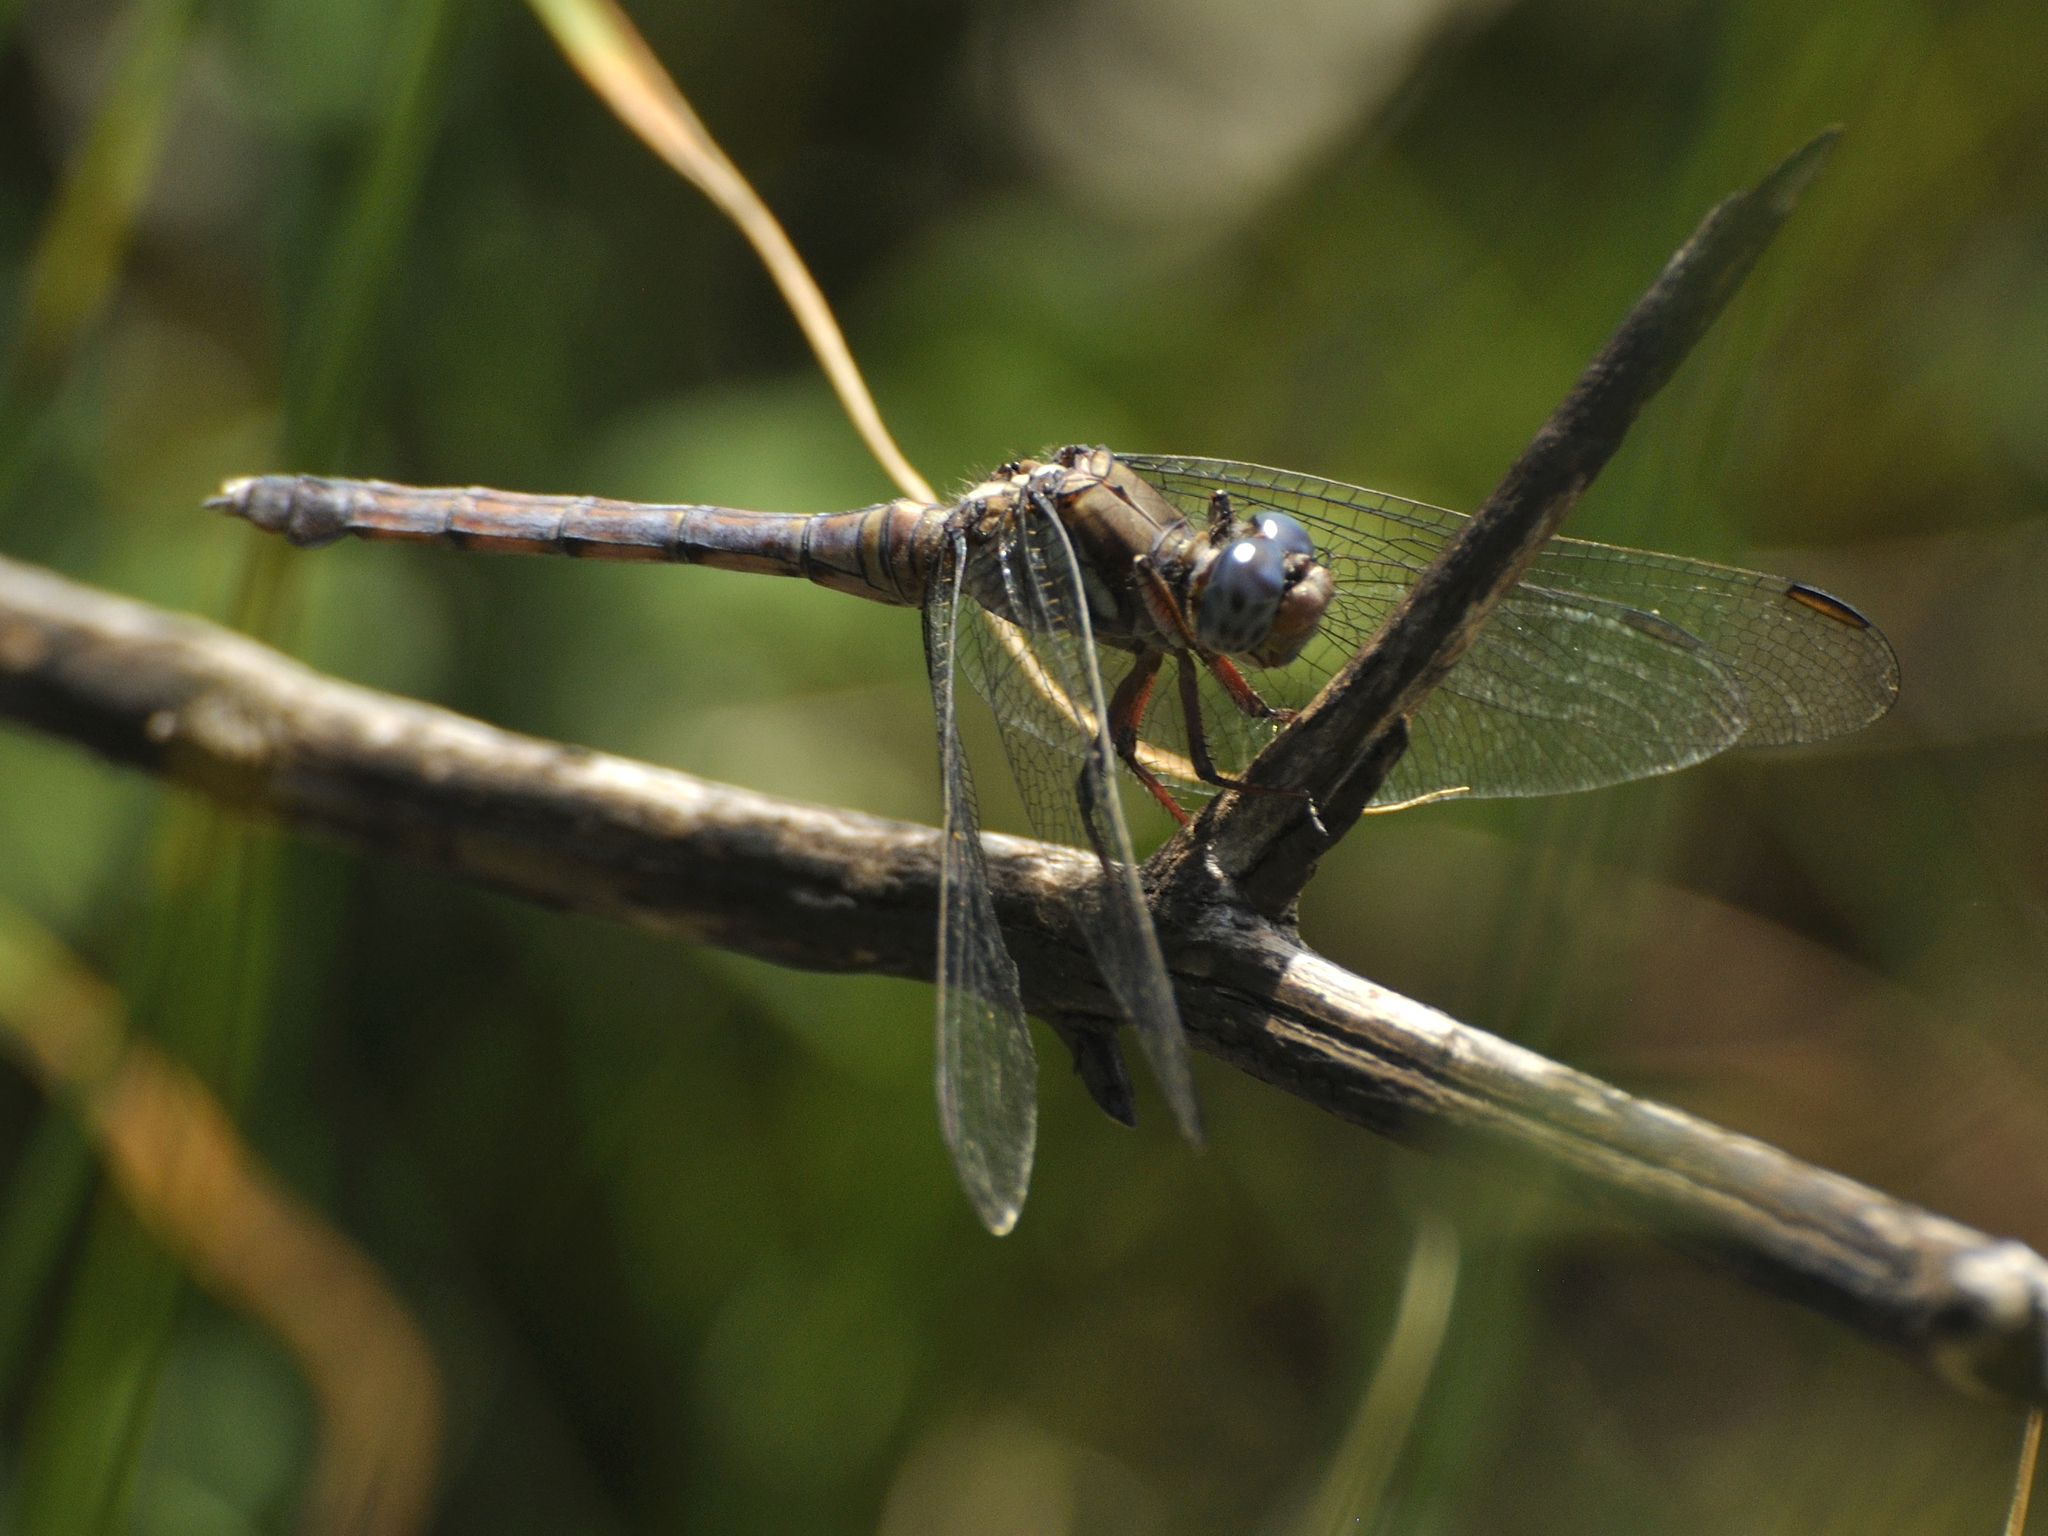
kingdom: Animalia
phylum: Arthropoda
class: Insecta
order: Odonata
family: Libellulidae
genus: Orthetrum
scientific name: Orthetrum julia
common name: Julia skimmer
